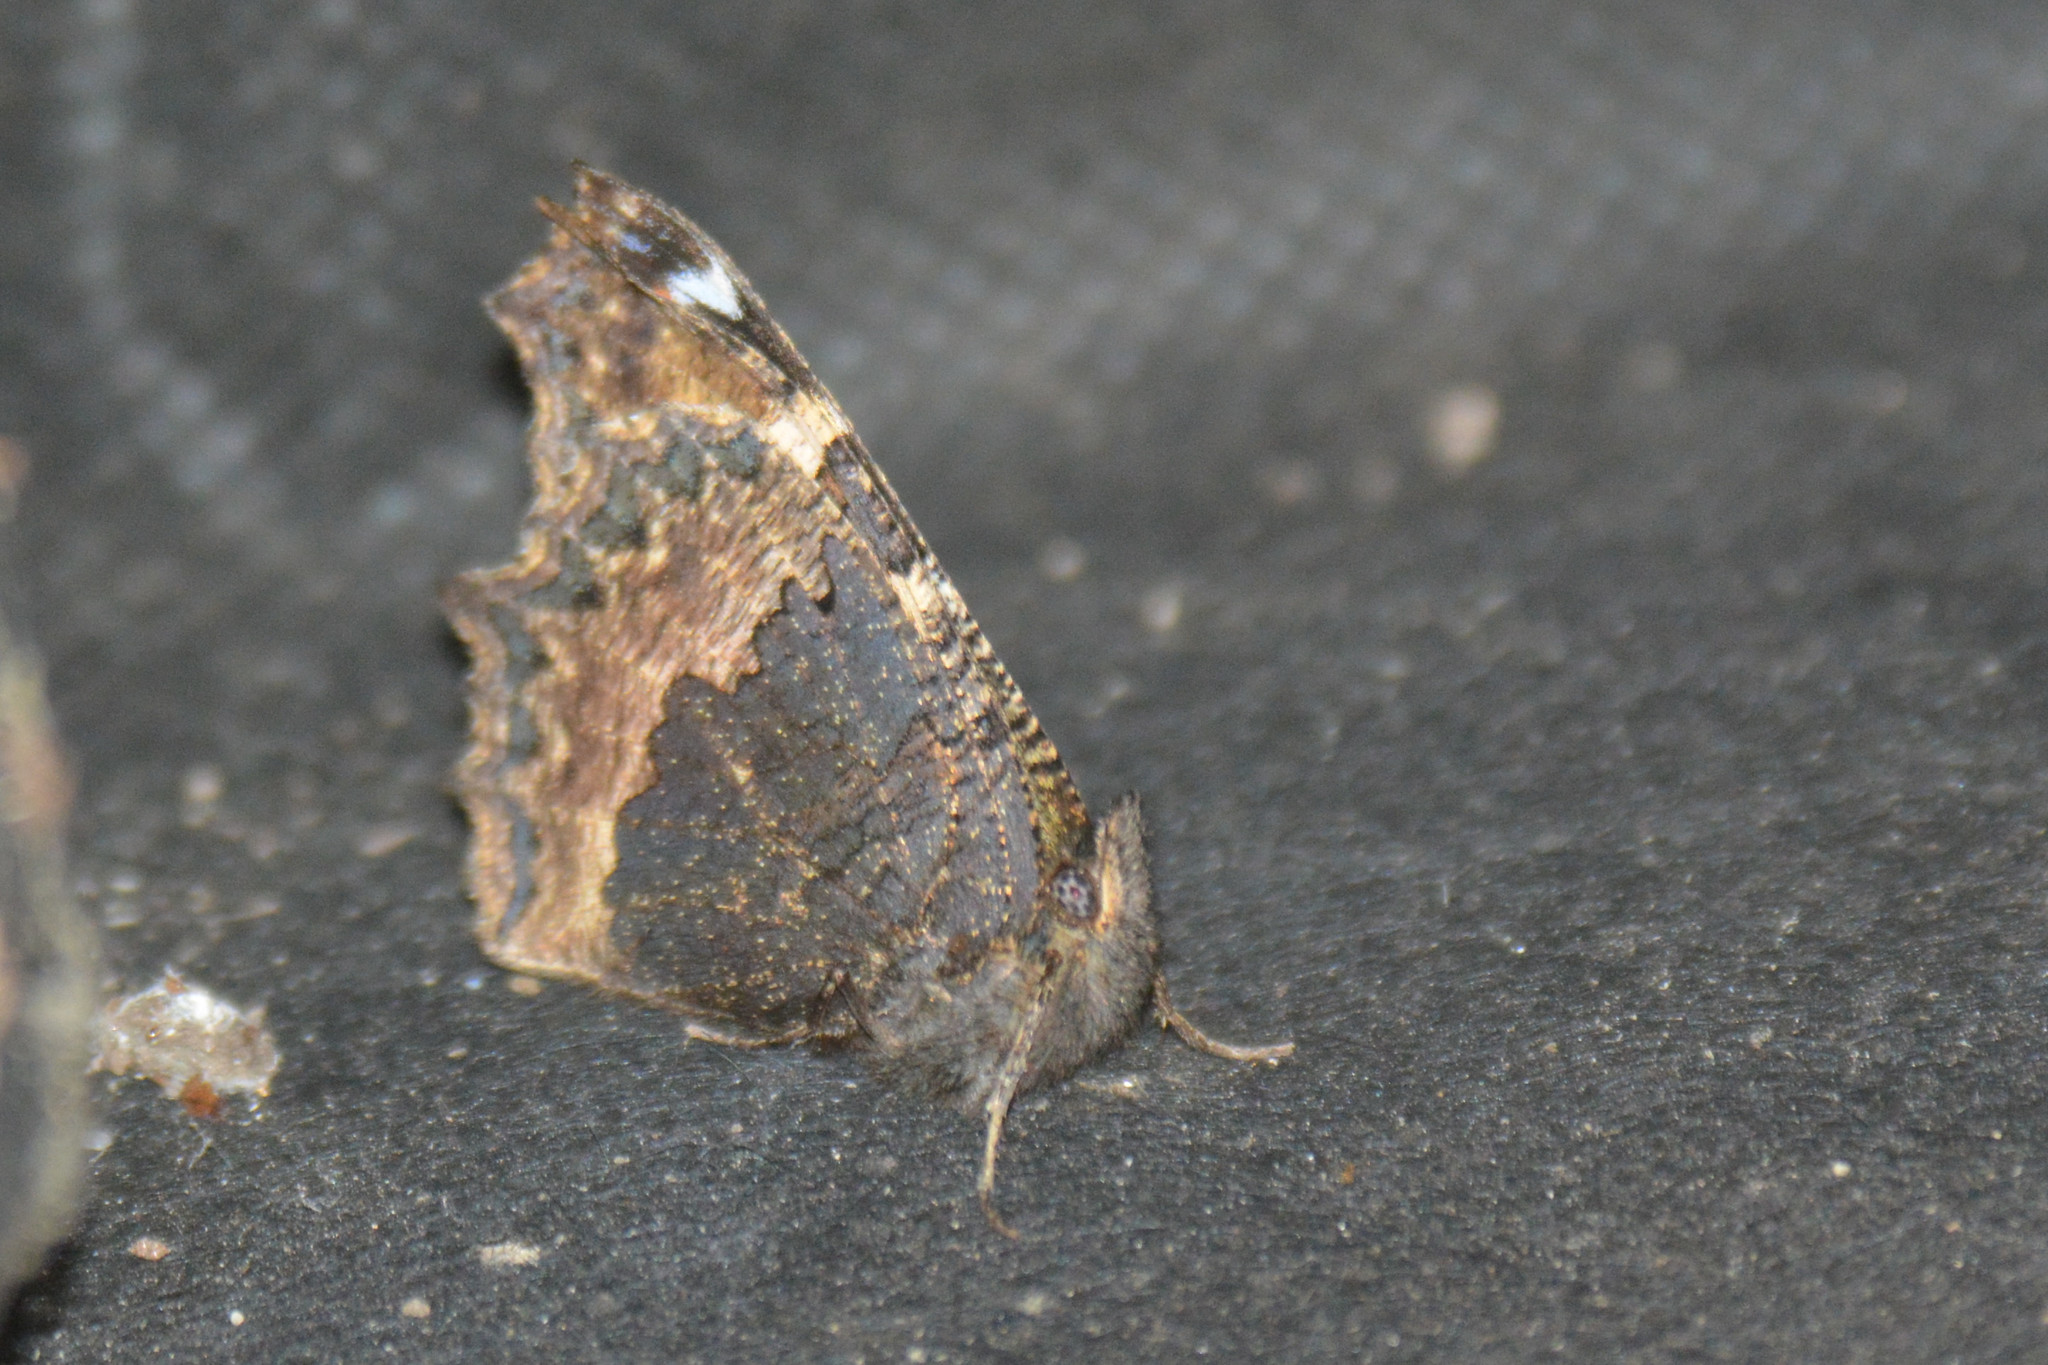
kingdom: Animalia
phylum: Arthropoda
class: Insecta
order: Lepidoptera
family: Nymphalidae
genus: Aglais
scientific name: Aglais urticae
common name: Small tortoiseshell
